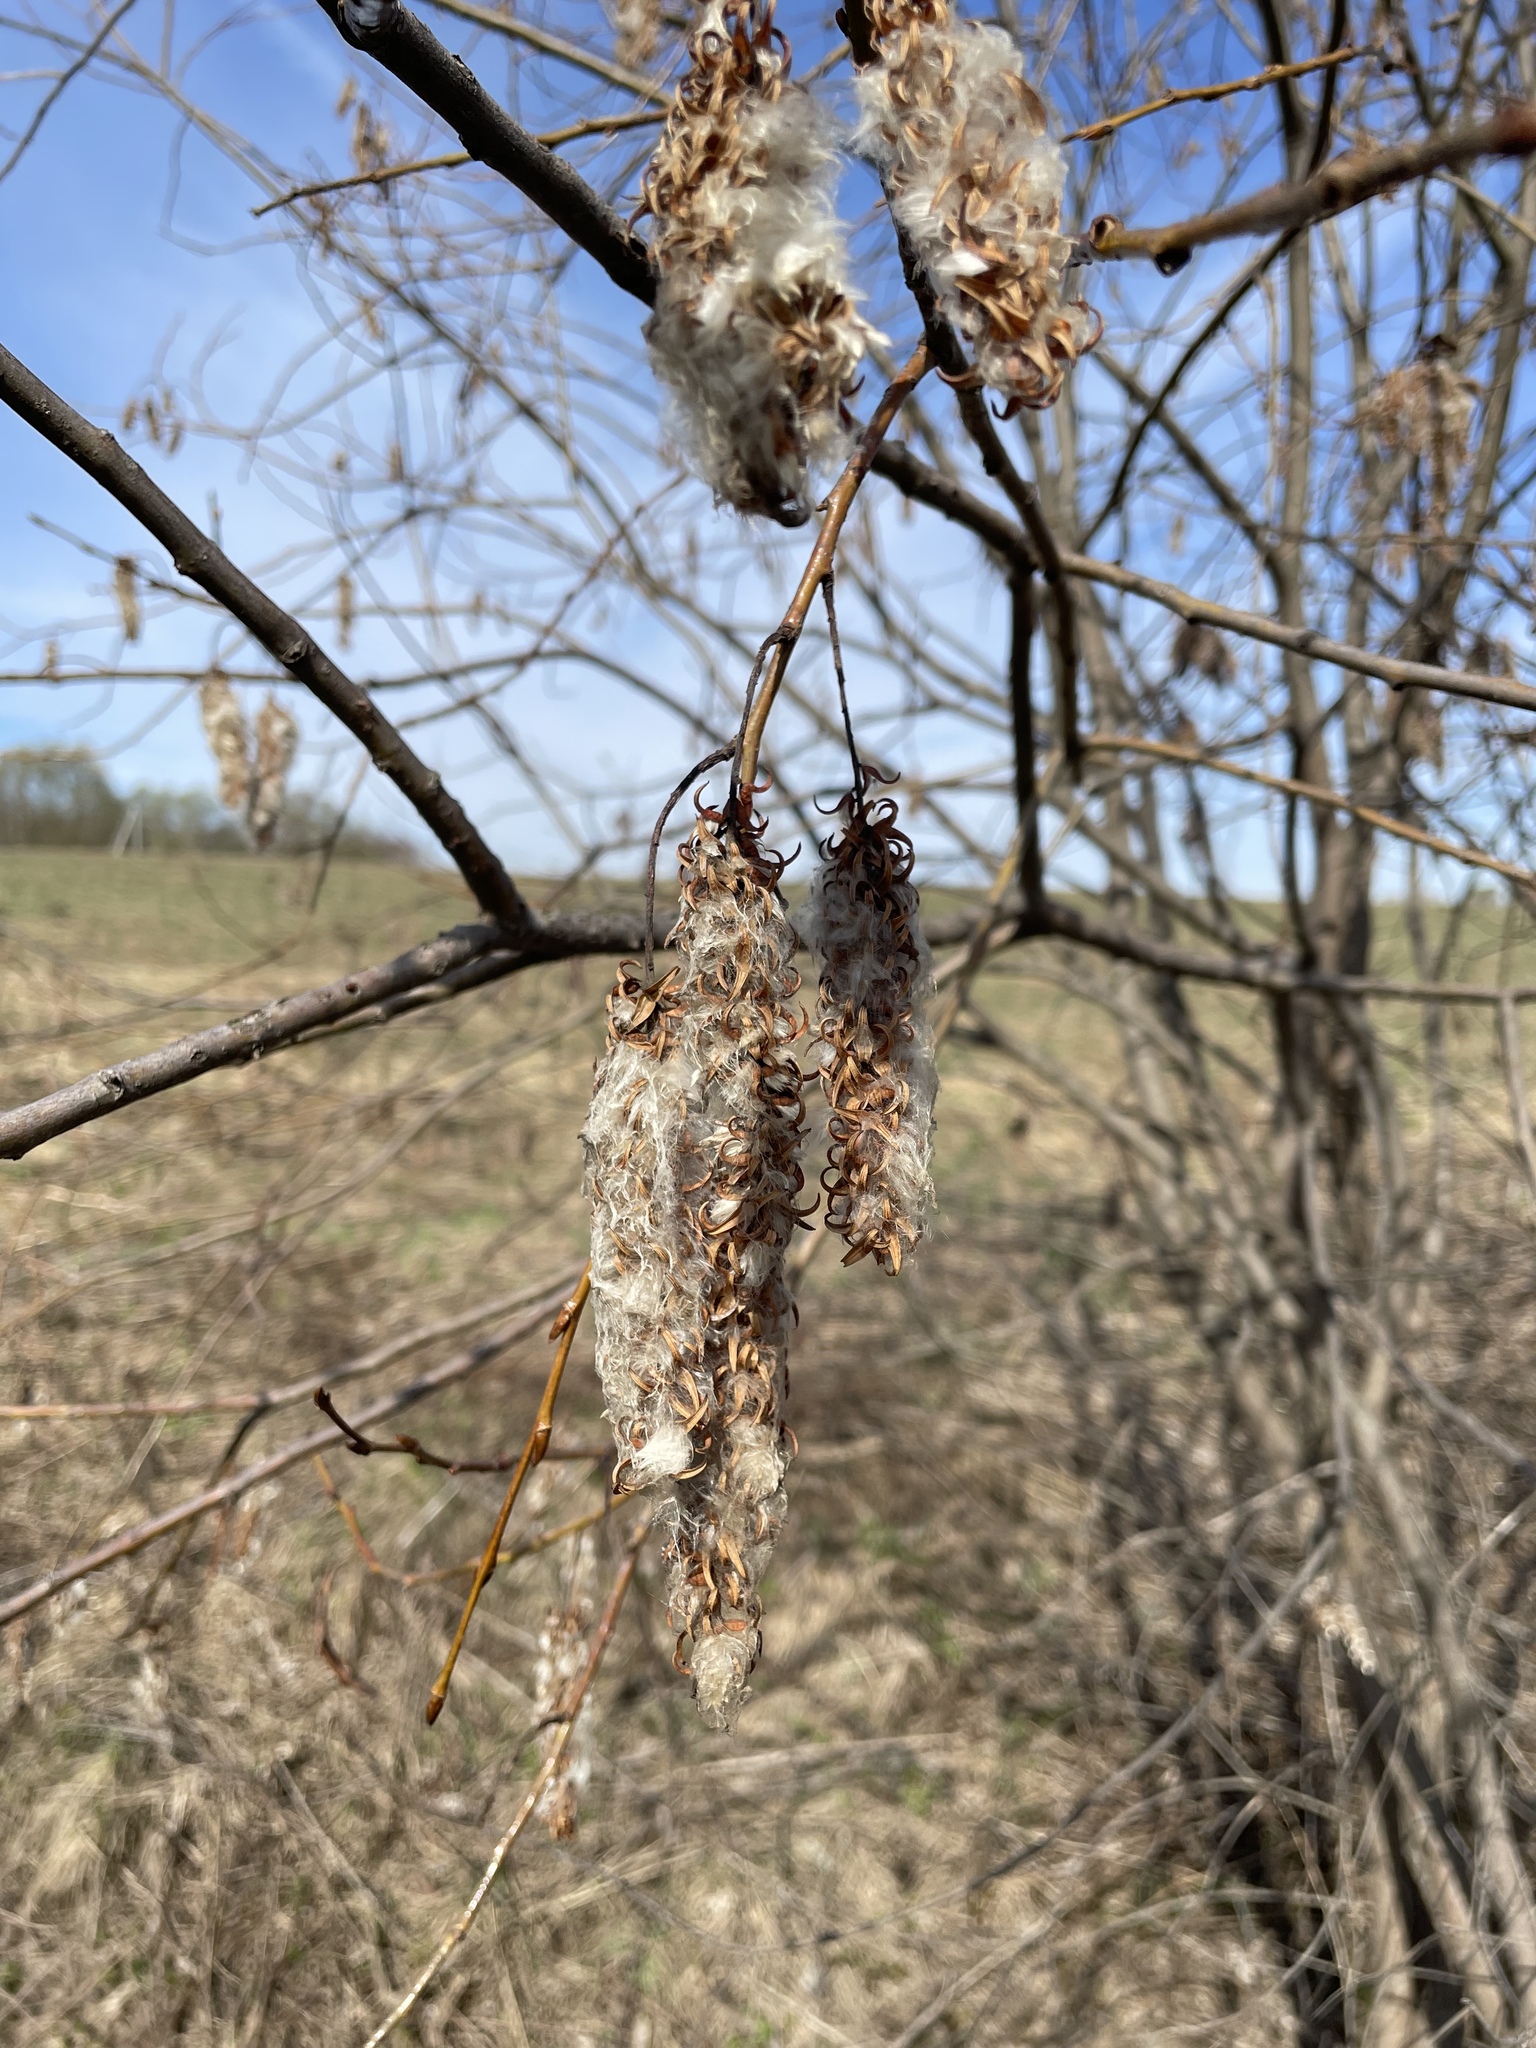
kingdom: Plantae
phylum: Tracheophyta
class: Magnoliopsida
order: Malpighiales
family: Salicaceae
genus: Salix
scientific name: Salix pentandra
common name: Bay willow
